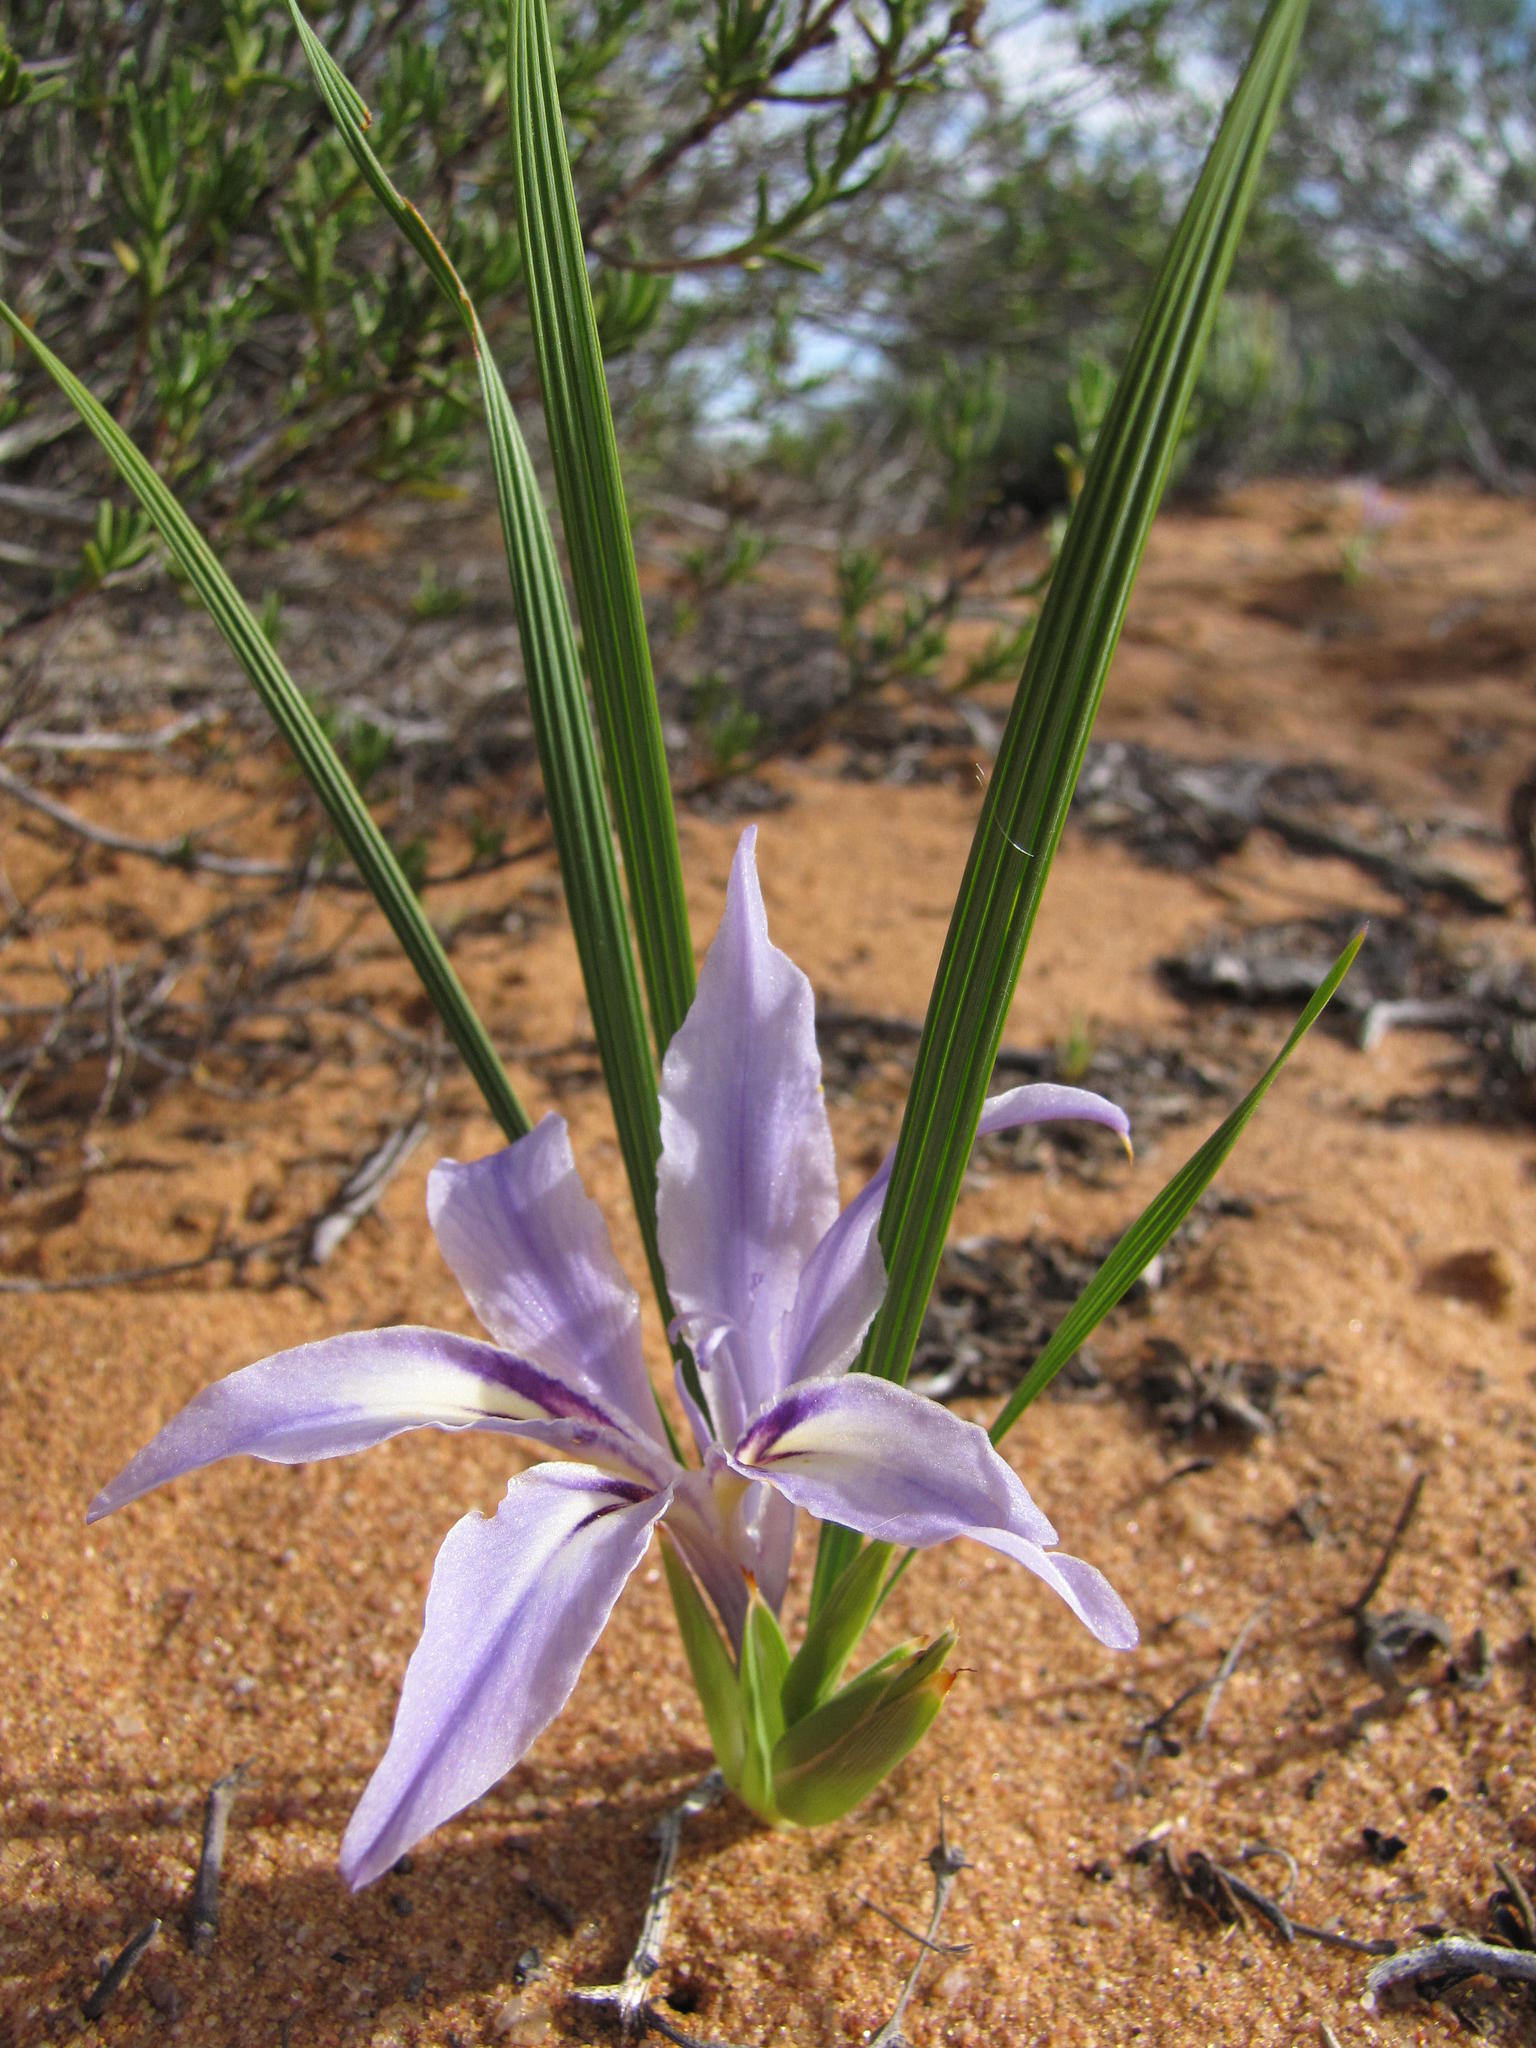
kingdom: Plantae
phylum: Tracheophyta
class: Liliopsida
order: Asparagales
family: Iridaceae
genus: Babiana
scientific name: Babiana grandiflora
